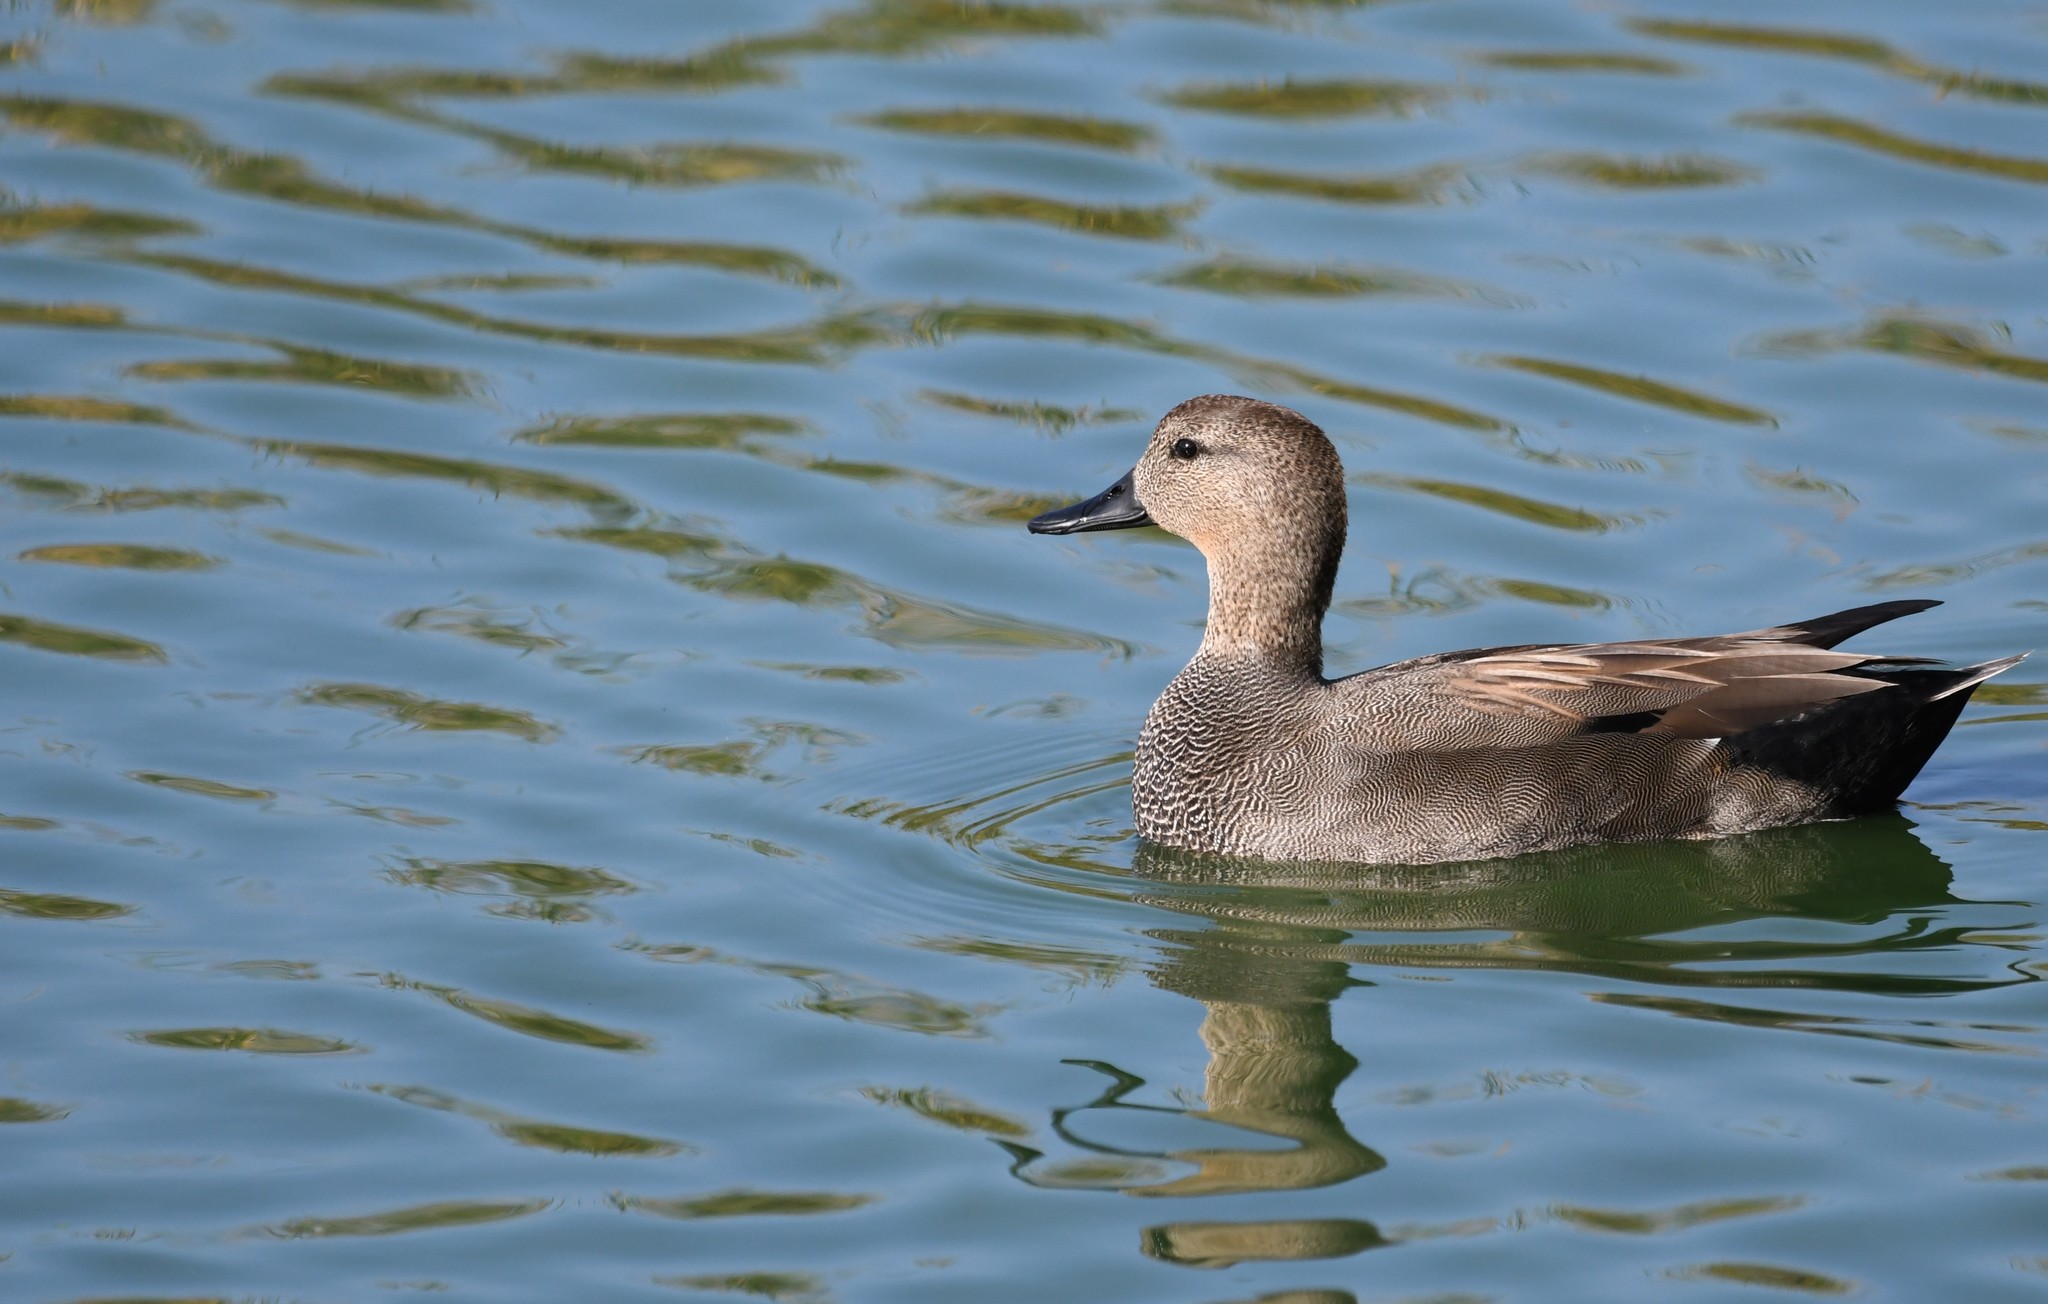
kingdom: Animalia
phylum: Chordata
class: Aves
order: Anseriformes
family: Anatidae
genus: Mareca
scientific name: Mareca strepera
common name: Gadwall
